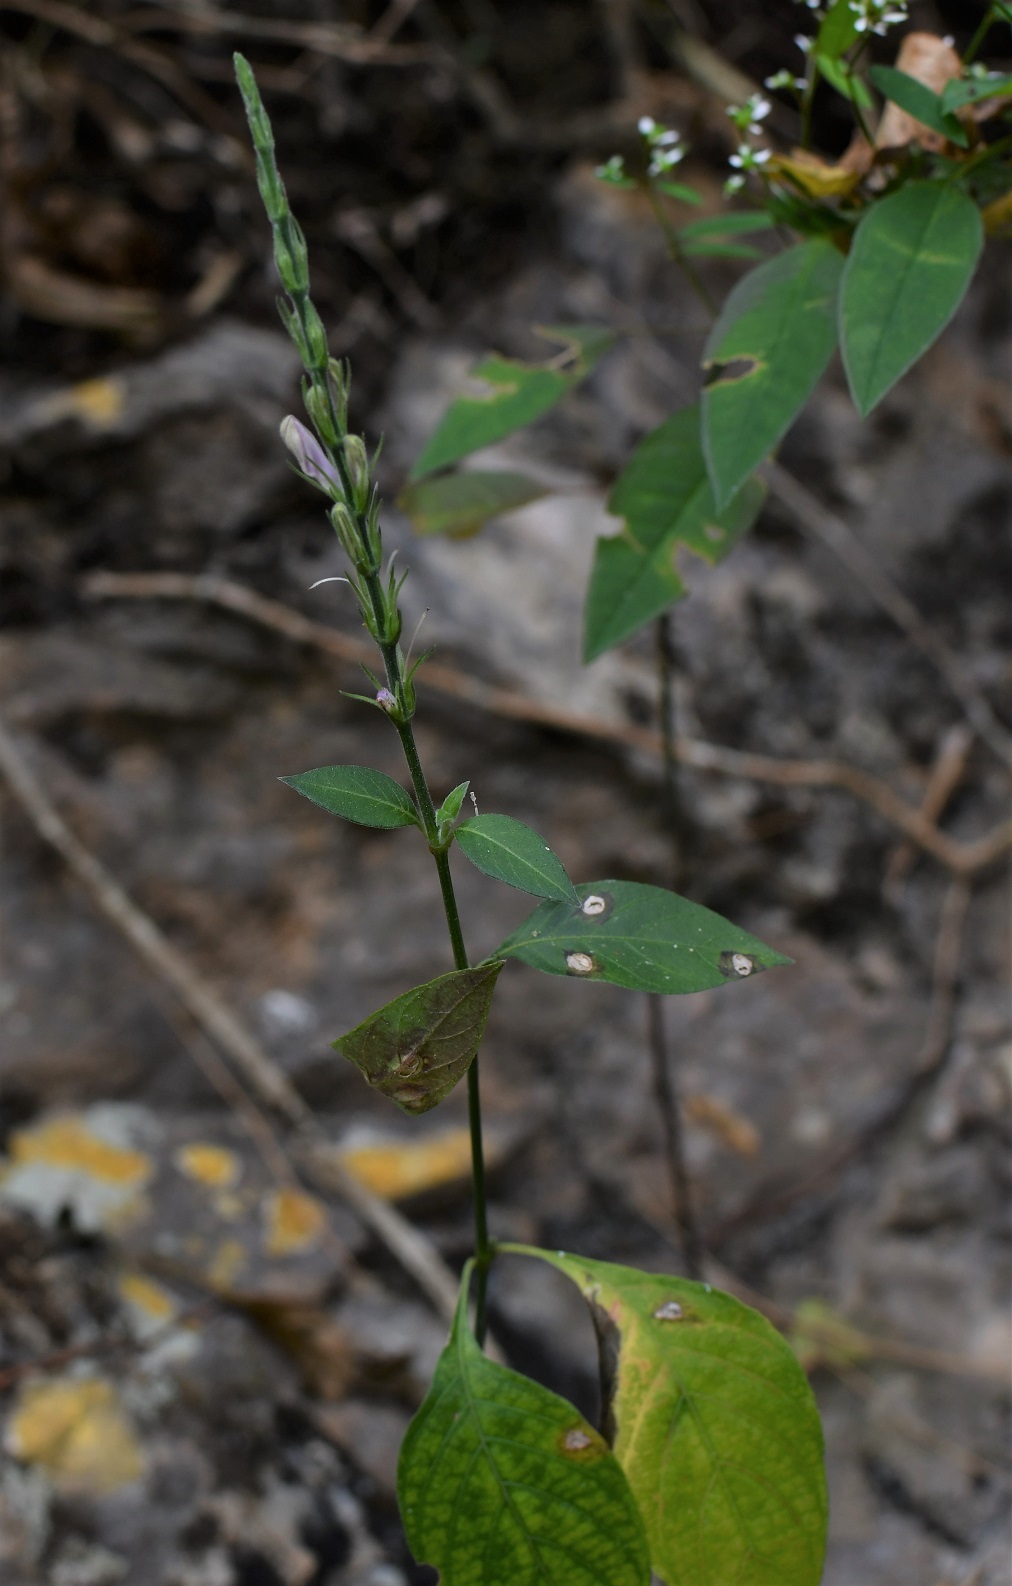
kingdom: Plantae
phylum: Tracheophyta
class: Magnoliopsida
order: Lamiales
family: Acanthaceae
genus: Dianthera
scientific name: Dianthera breviflora
